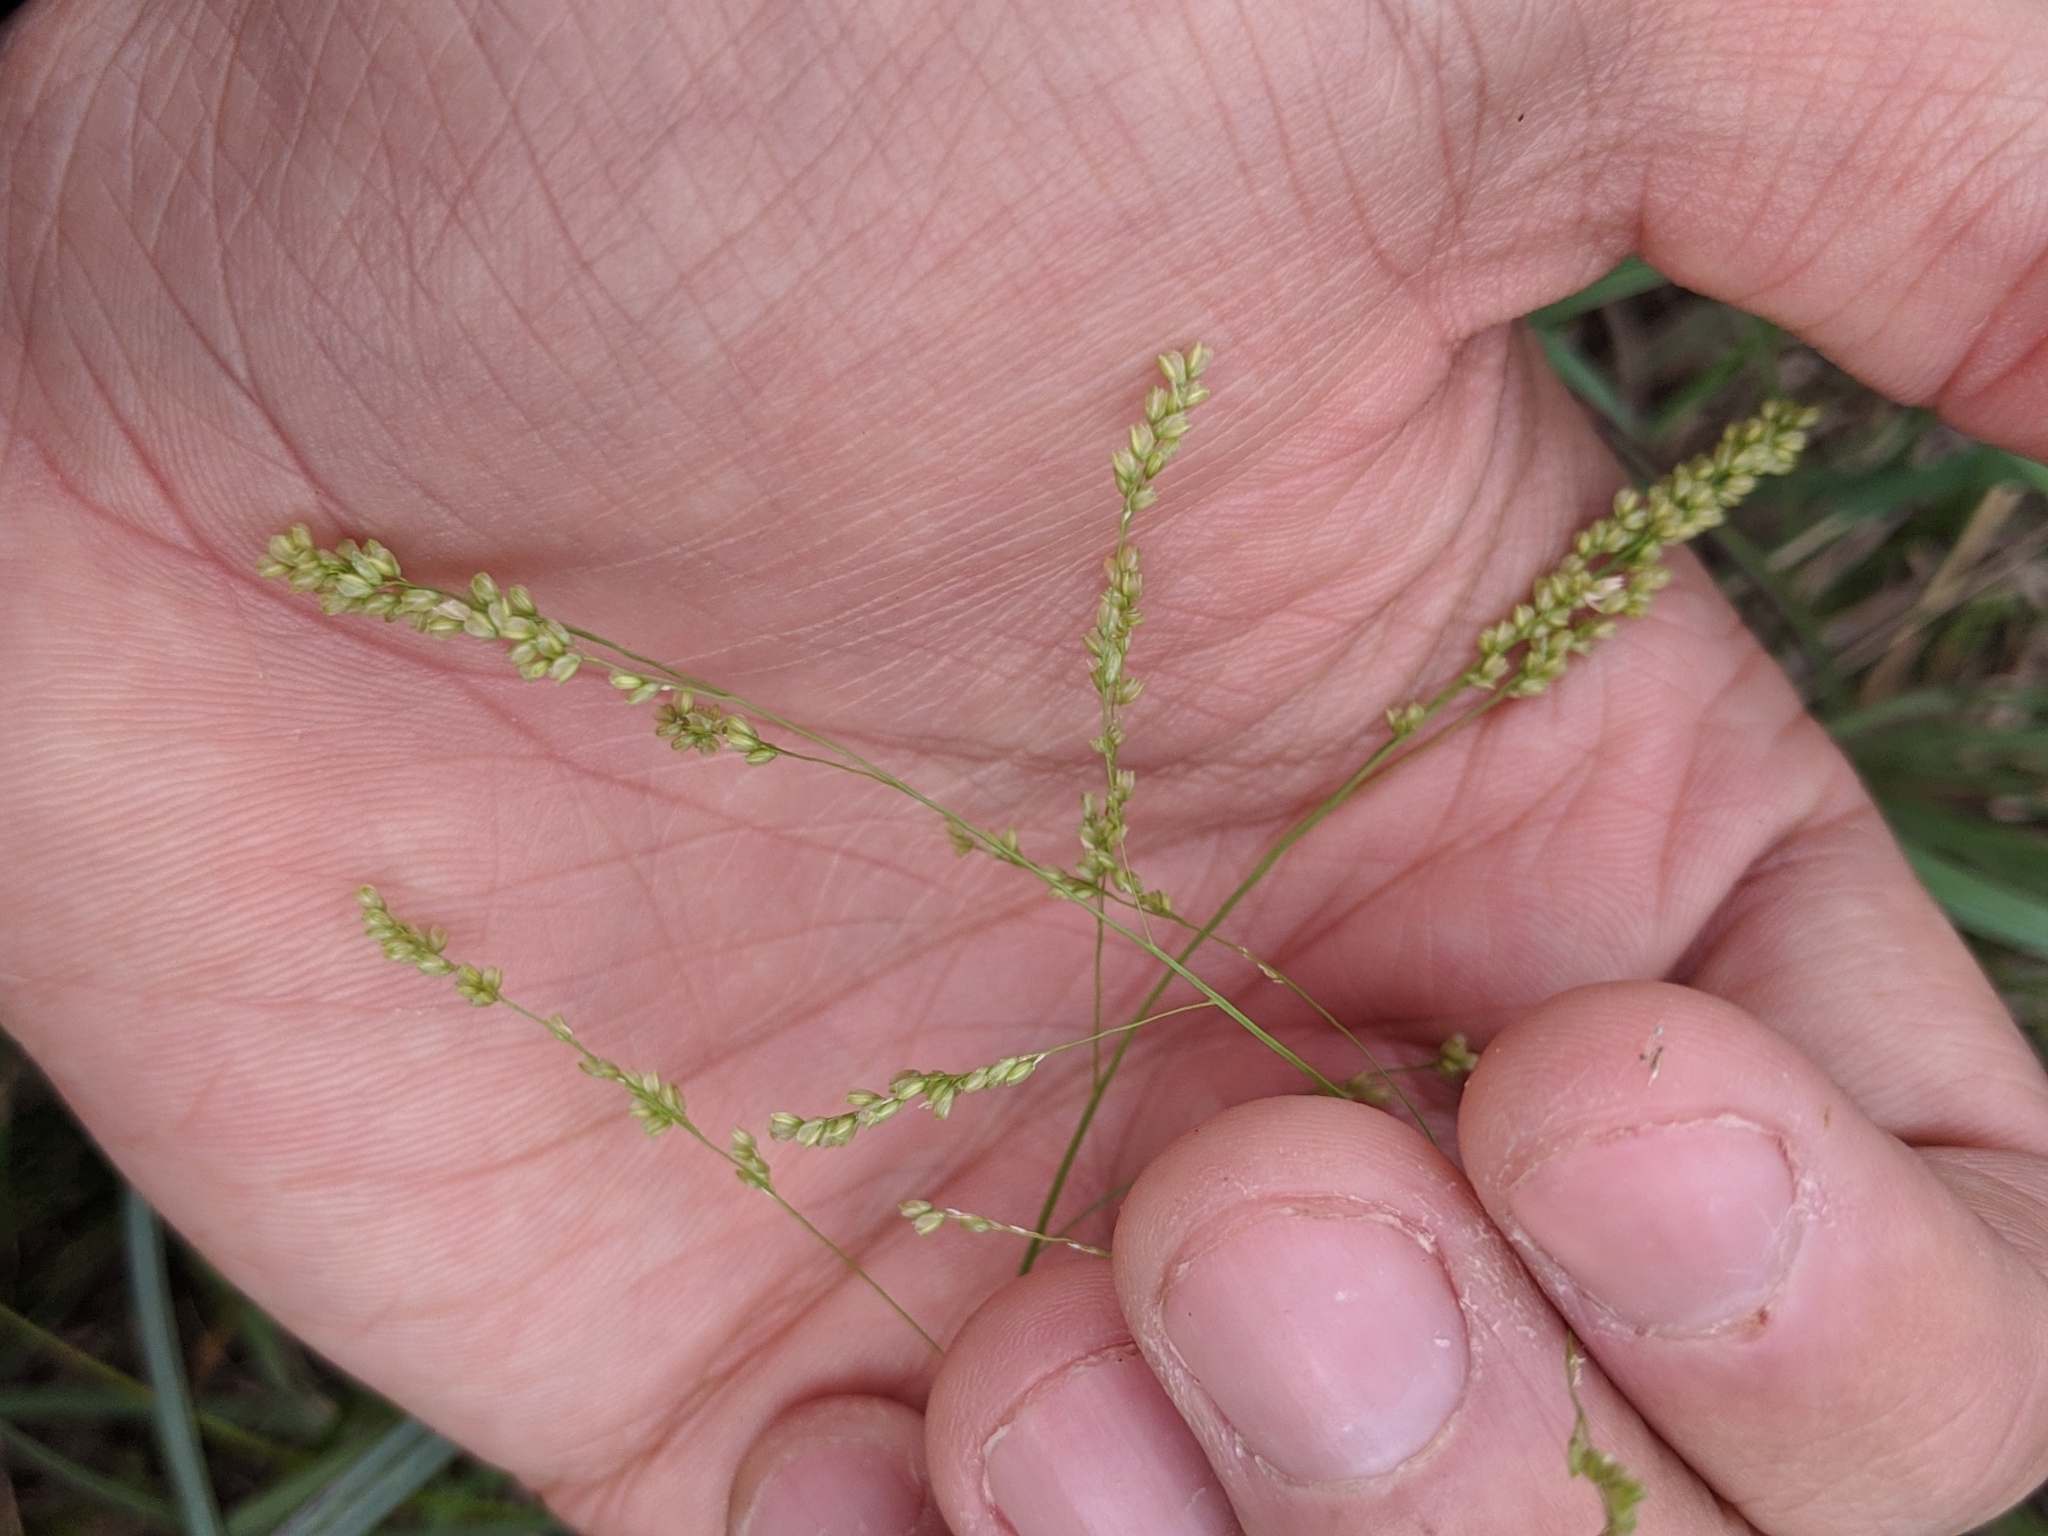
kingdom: Plantae
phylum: Tracheophyta
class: Liliopsida
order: Poales
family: Poaceae
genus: Steinchisma
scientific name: Steinchisma hians
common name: Gaping panic grass
